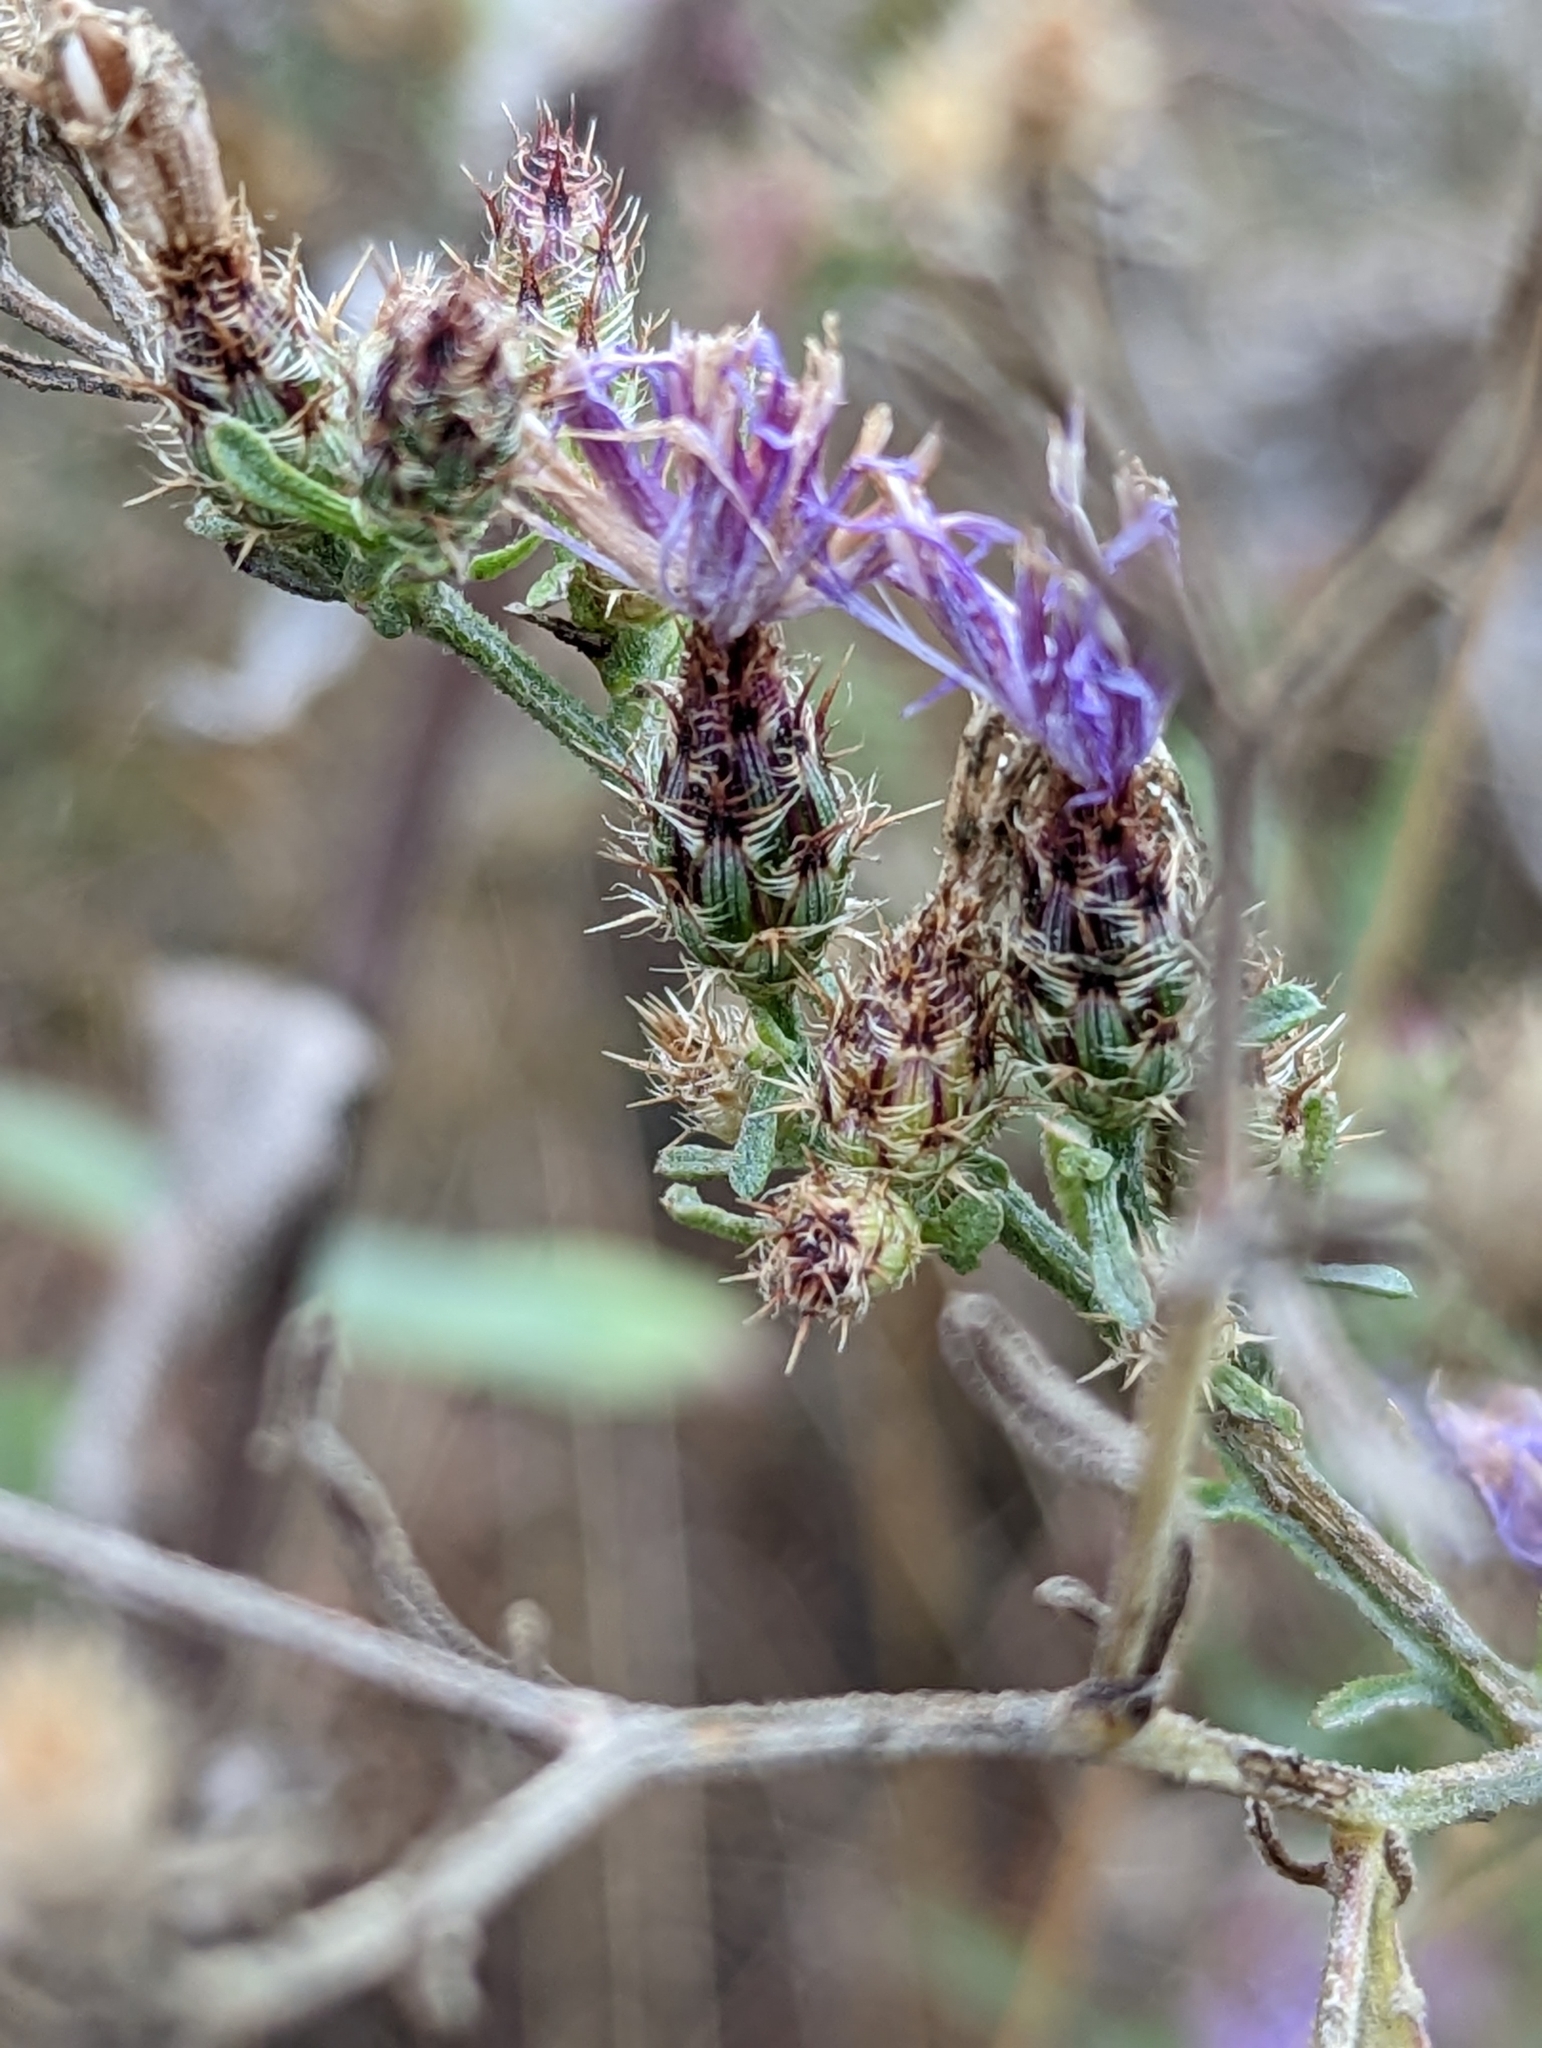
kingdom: Plantae
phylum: Tracheophyta
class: Magnoliopsida
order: Asterales
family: Asteraceae
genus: Centaurea
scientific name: Centaurea psammogena
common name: Diffuse-spotted knapweed hybrid
